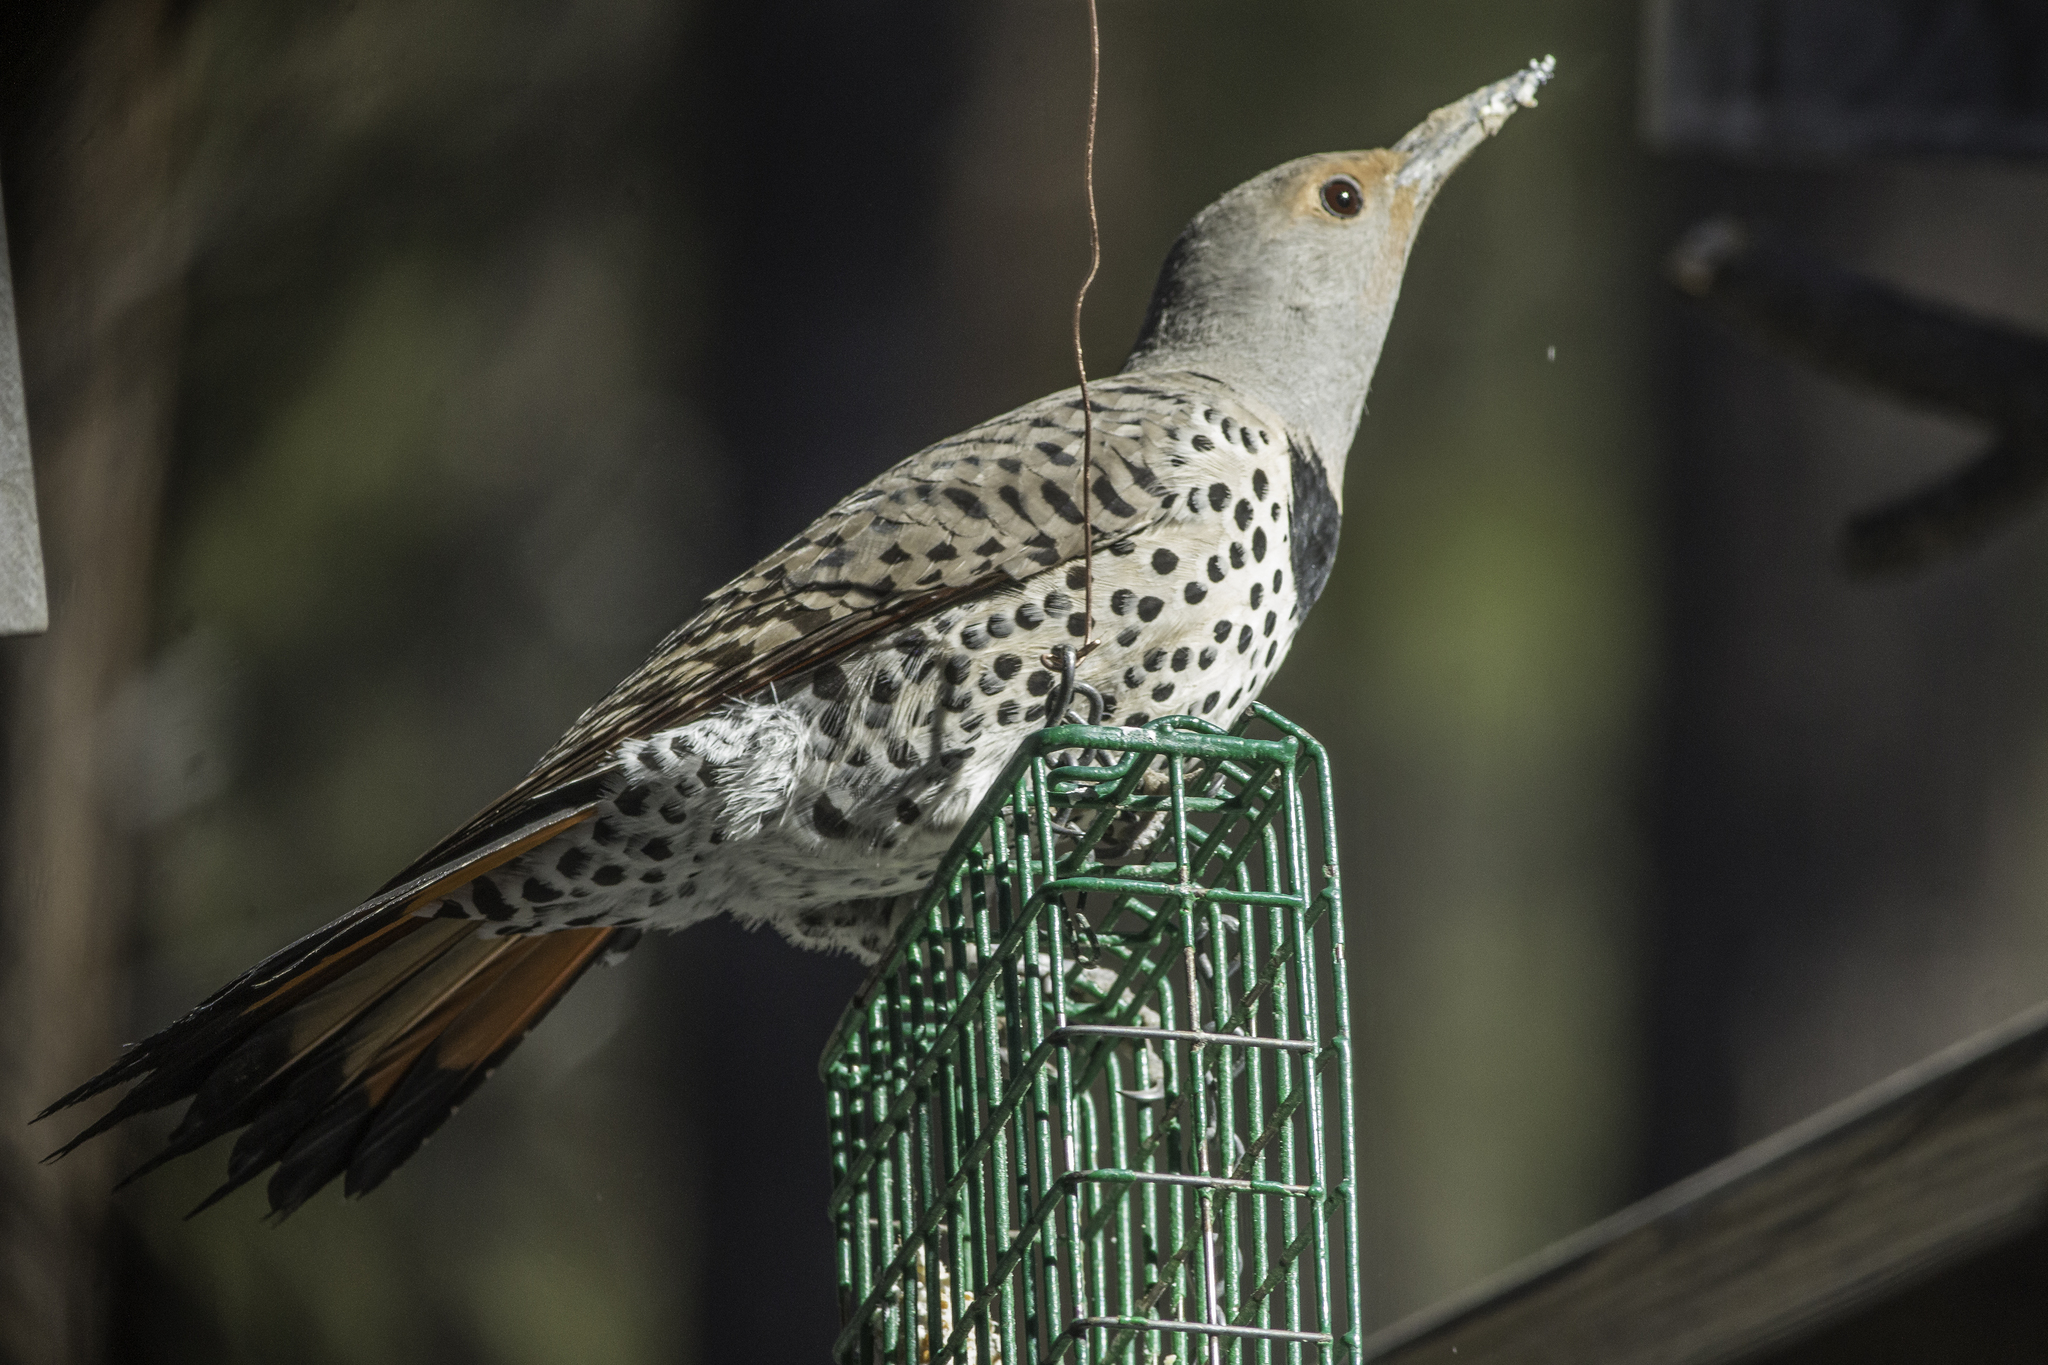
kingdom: Animalia
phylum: Chordata
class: Aves
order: Piciformes
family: Picidae
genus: Colaptes
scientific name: Colaptes auratus
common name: Northern flicker
